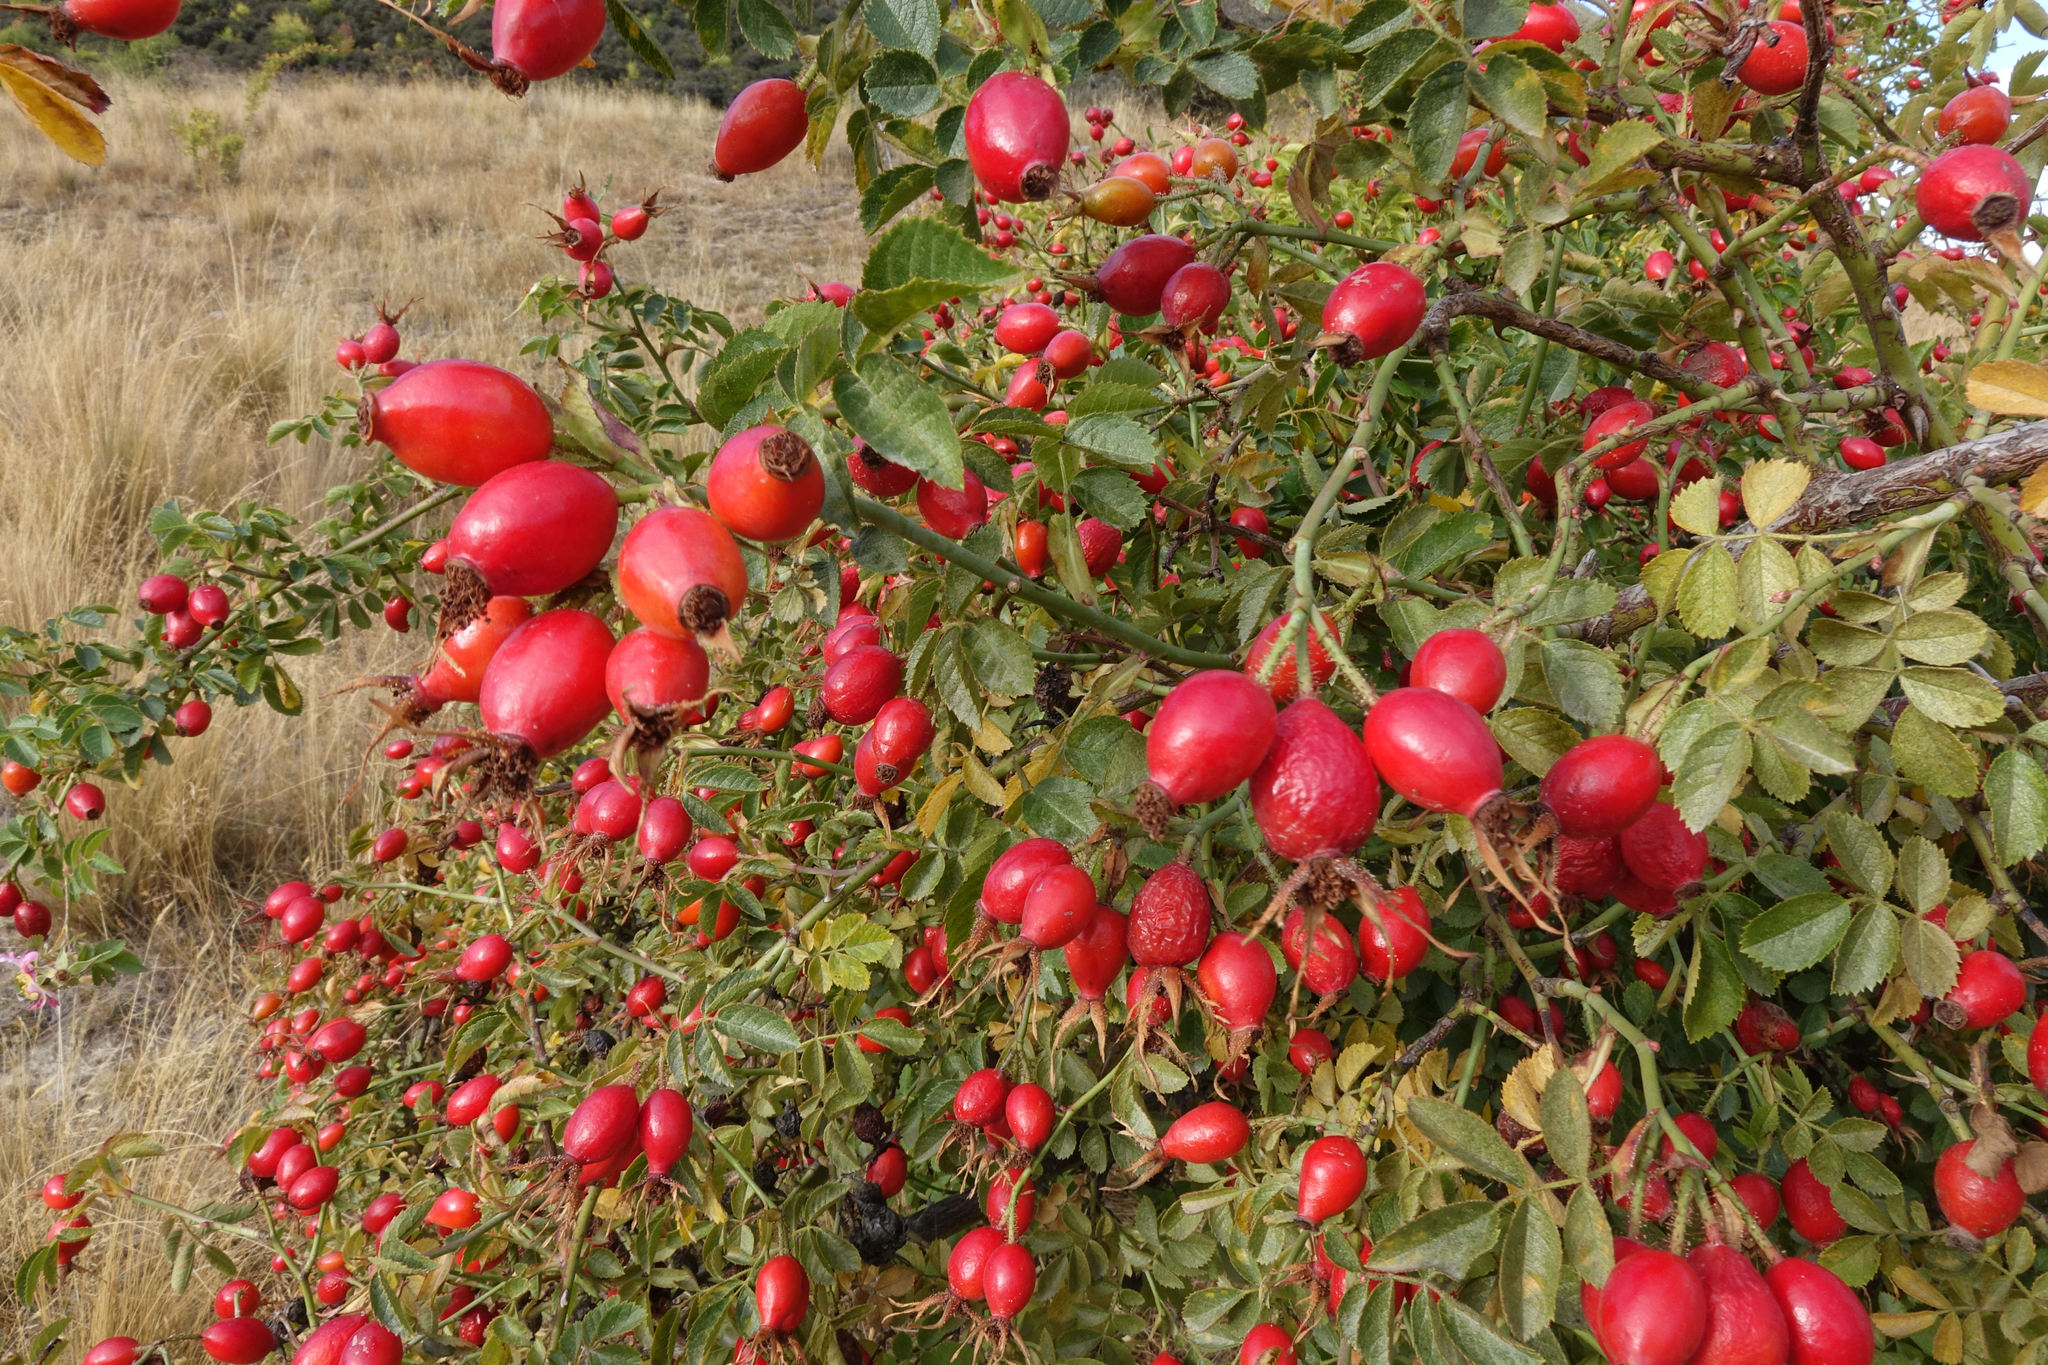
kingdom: Plantae
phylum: Tracheophyta
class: Magnoliopsida
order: Rosales
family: Rosaceae
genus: Rosa
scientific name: Rosa rubiginosa
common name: Sweet-briar
